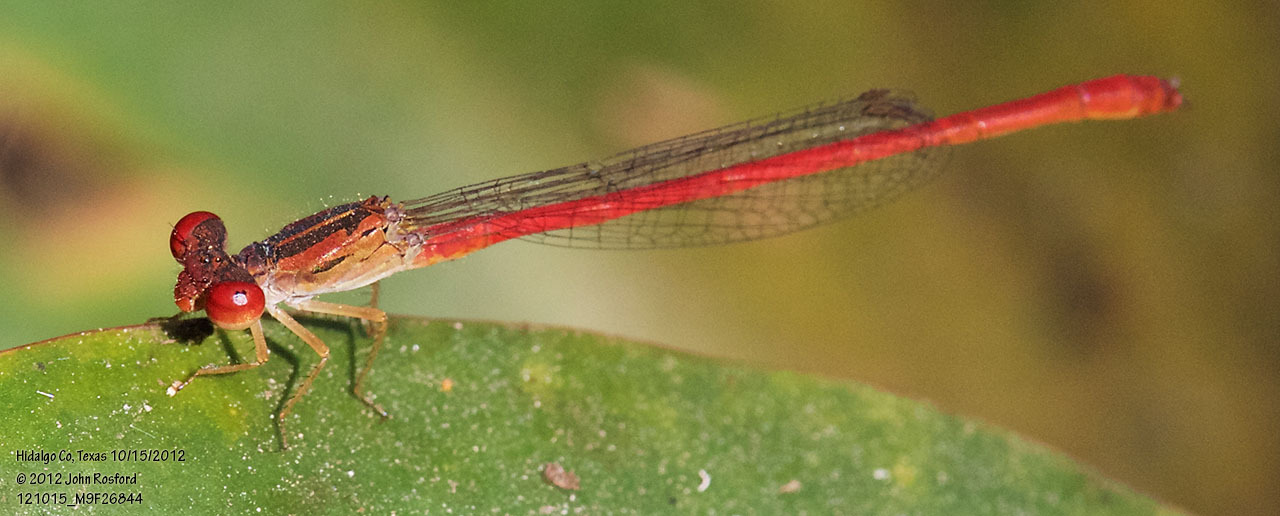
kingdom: Animalia
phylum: Arthropoda
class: Insecta
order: Odonata
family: Coenagrionidae
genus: Telebasis
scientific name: Telebasis salva
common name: Desert firetail
